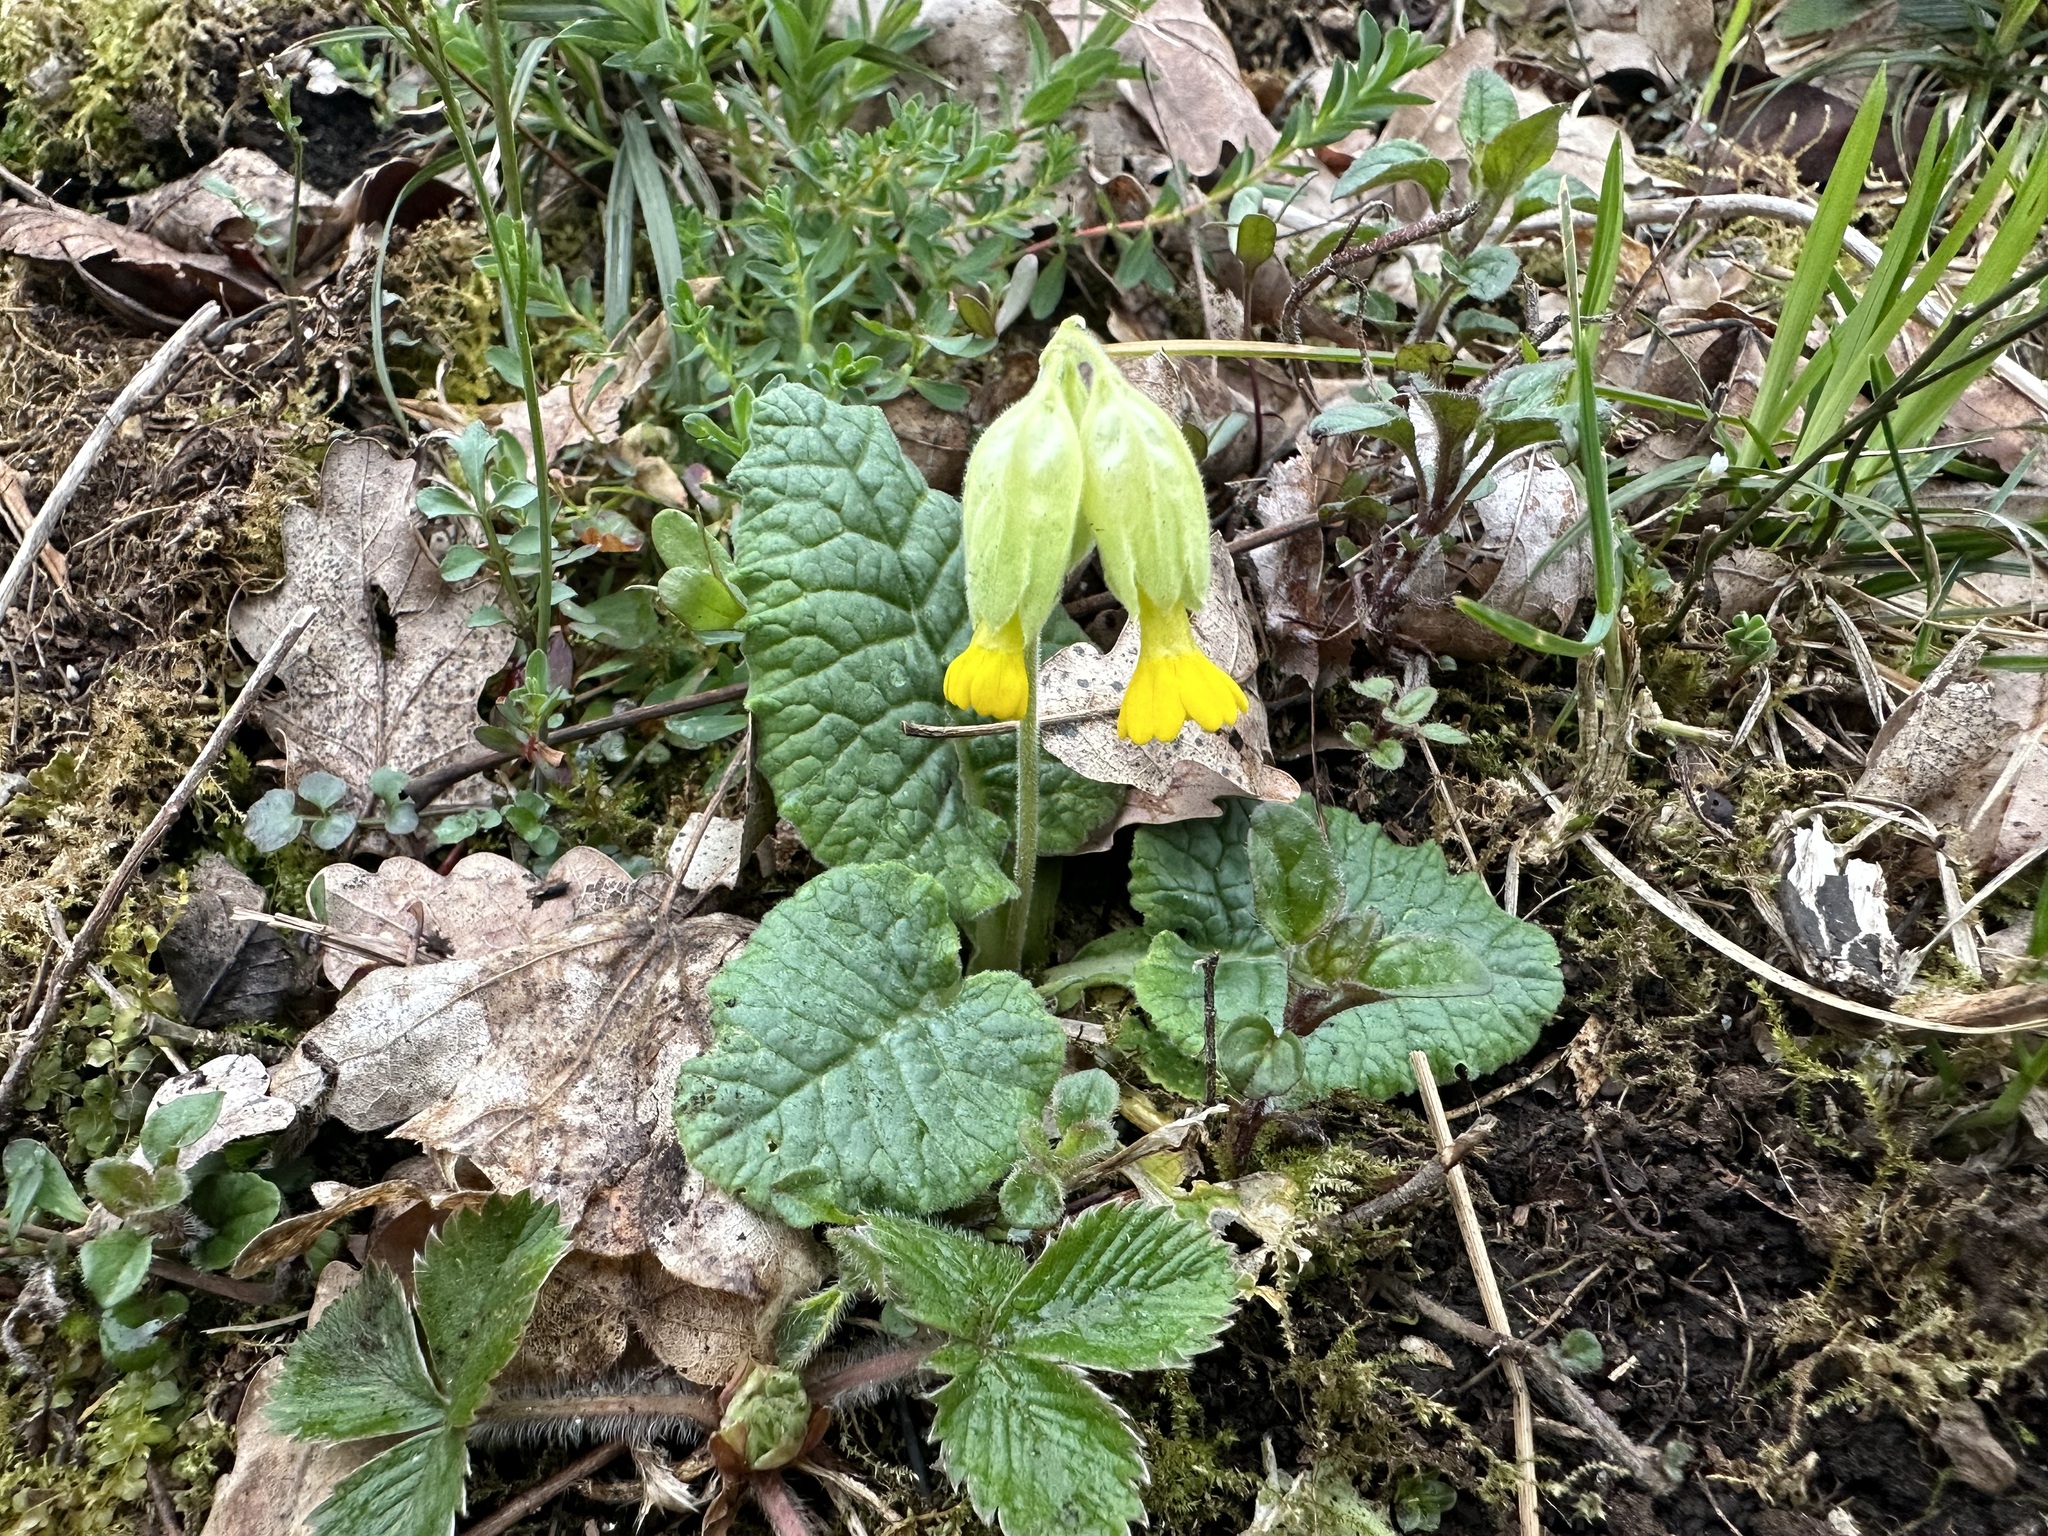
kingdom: Plantae
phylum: Tracheophyta
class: Magnoliopsida
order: Ericales
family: Primulaceae
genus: Primula
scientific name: Primula veris
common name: Cowslip
